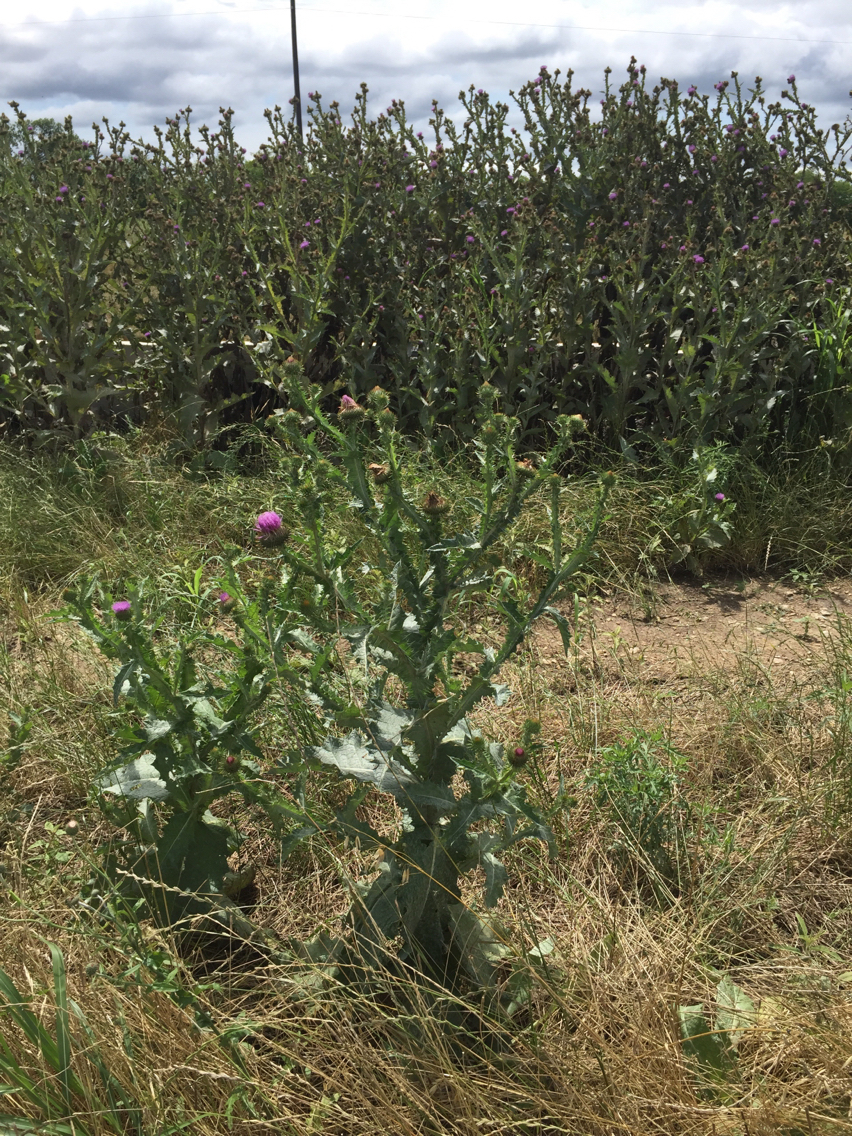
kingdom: Plantae
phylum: Tracheophyta
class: Magnoliopsida
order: Asterales
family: Asteraceae
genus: Onopordum
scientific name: Onopordum acanthium
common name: Scotch thistle
